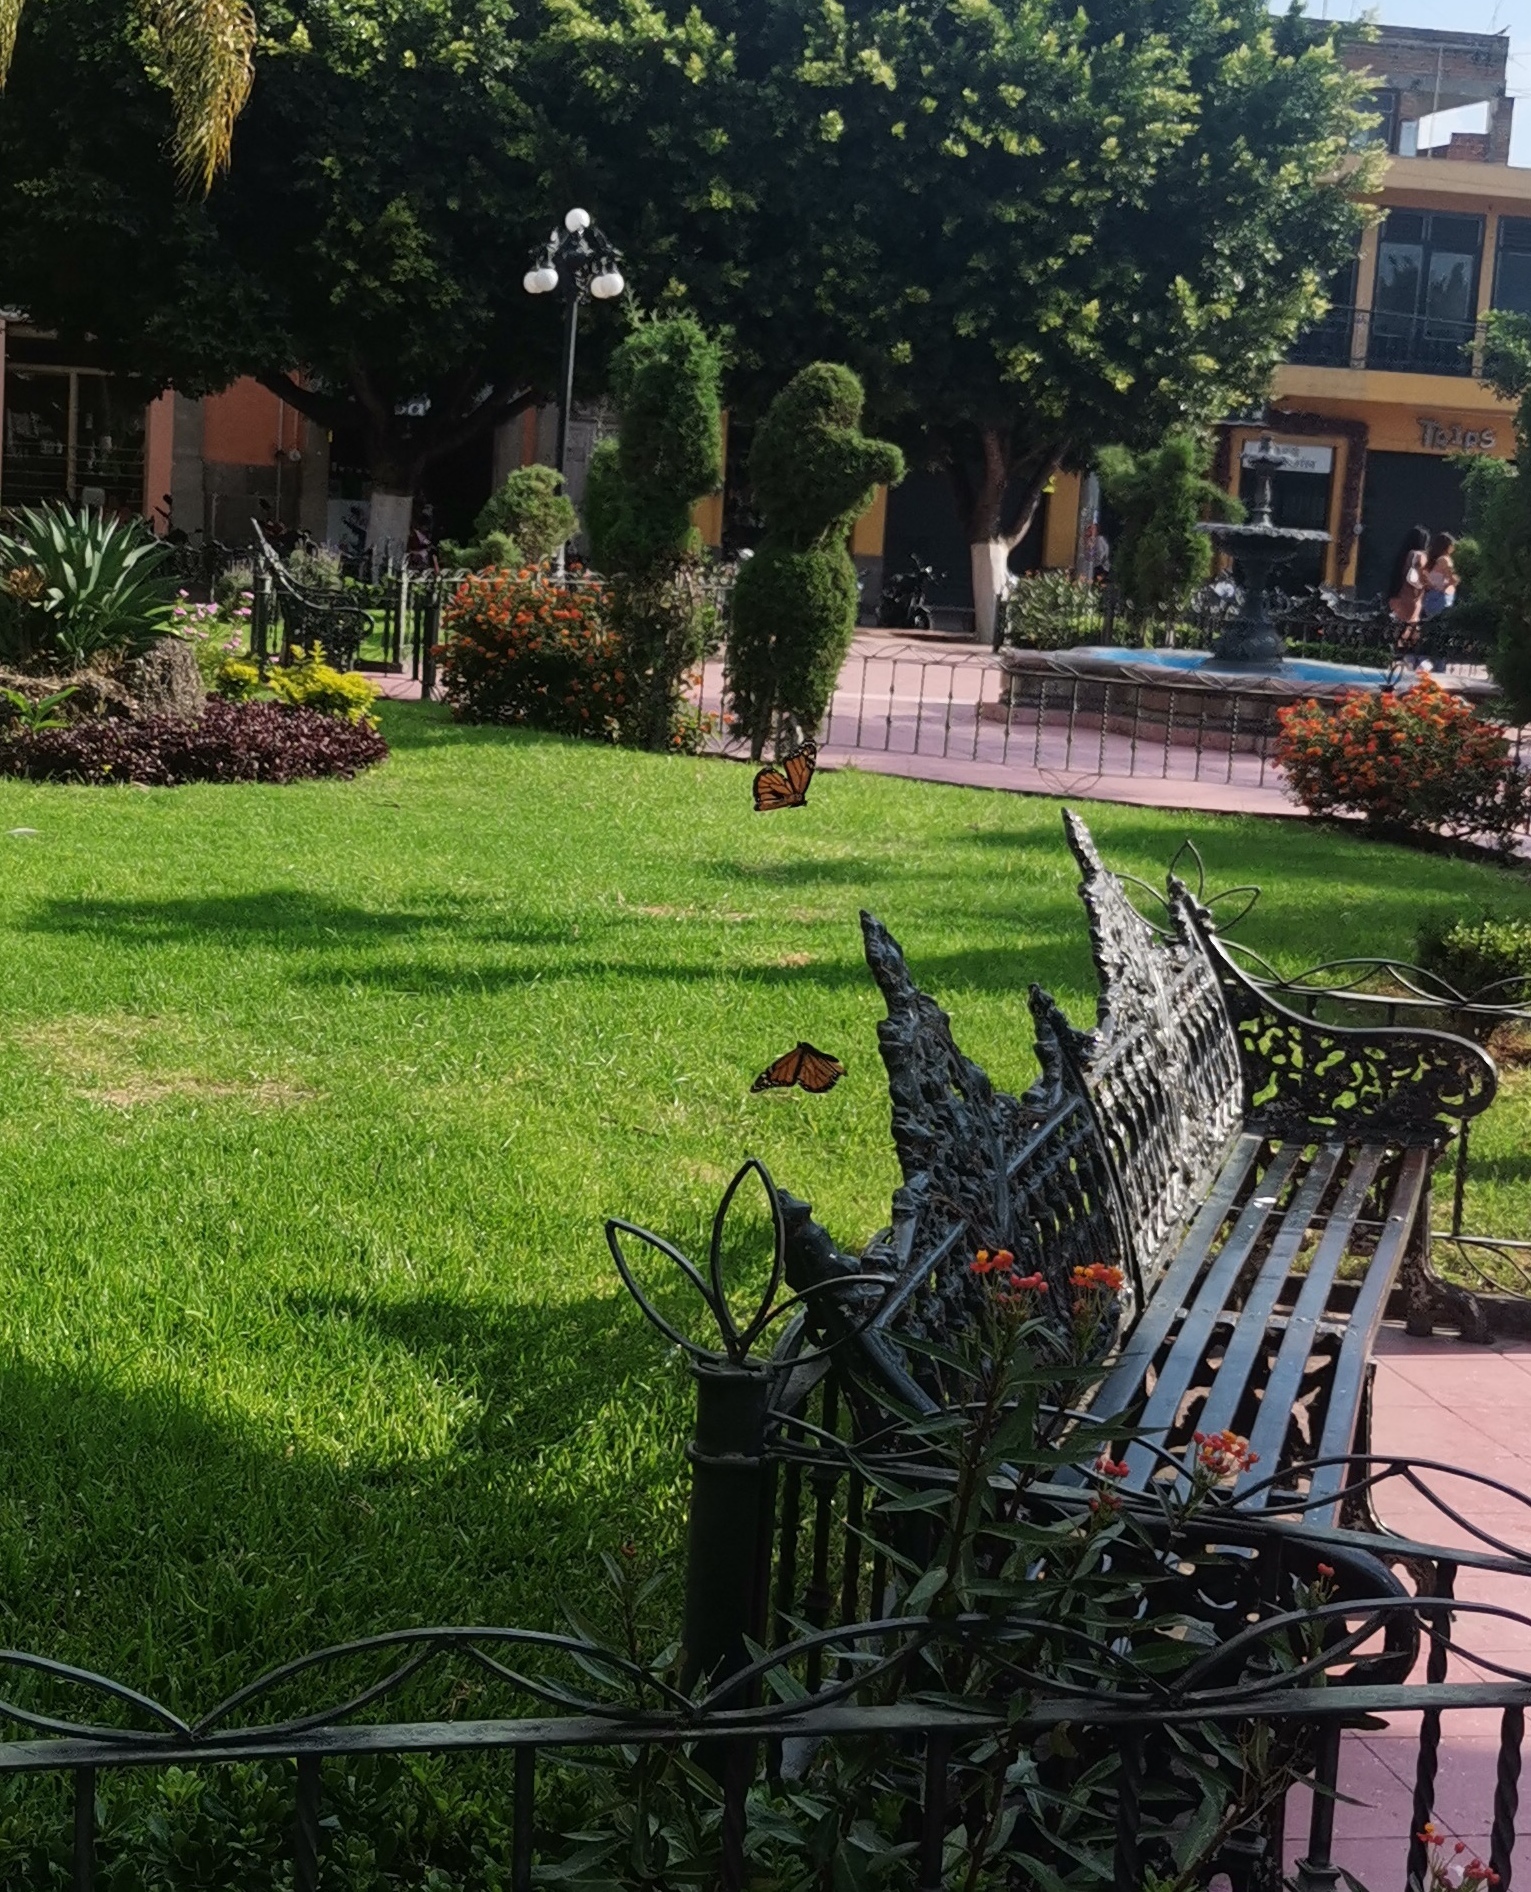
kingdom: Animalia
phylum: Arthropoda
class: Insecta
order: Lepidoptera
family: Nymphalidae
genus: Danaus
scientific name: Danaus plexippus
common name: Monarch
